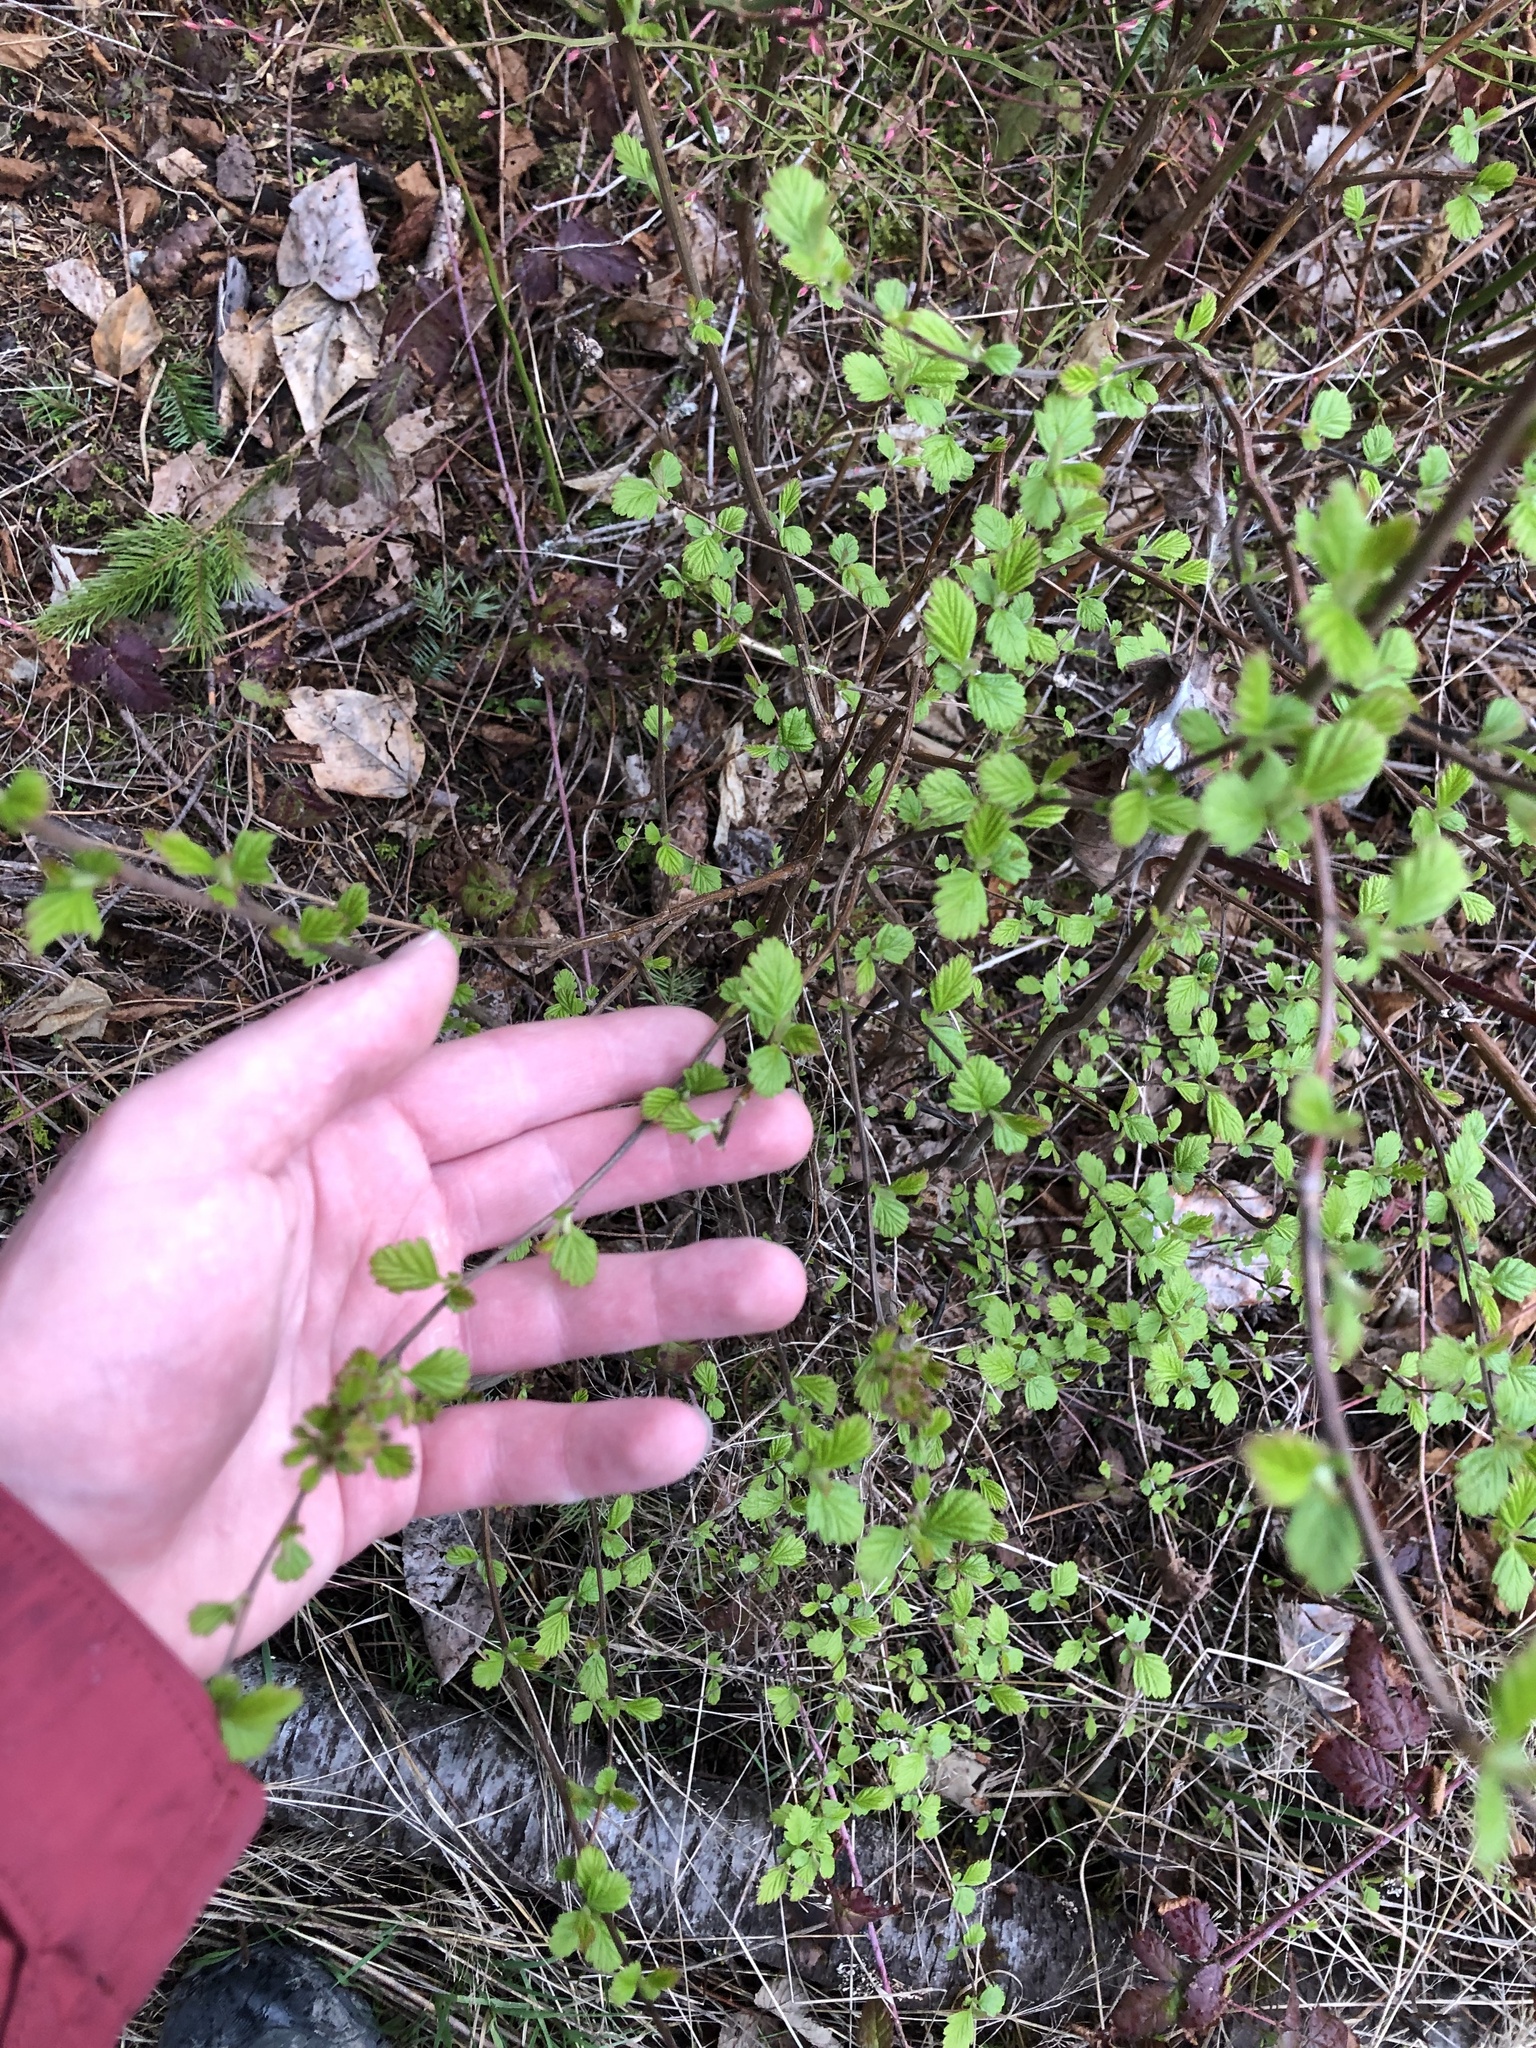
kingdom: Plantae
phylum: Tracheophyta
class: Magnoliopsida
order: Rosales
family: Rosaceae
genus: Holodiscus
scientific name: Holodiscus discolor
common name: Oceanspray
